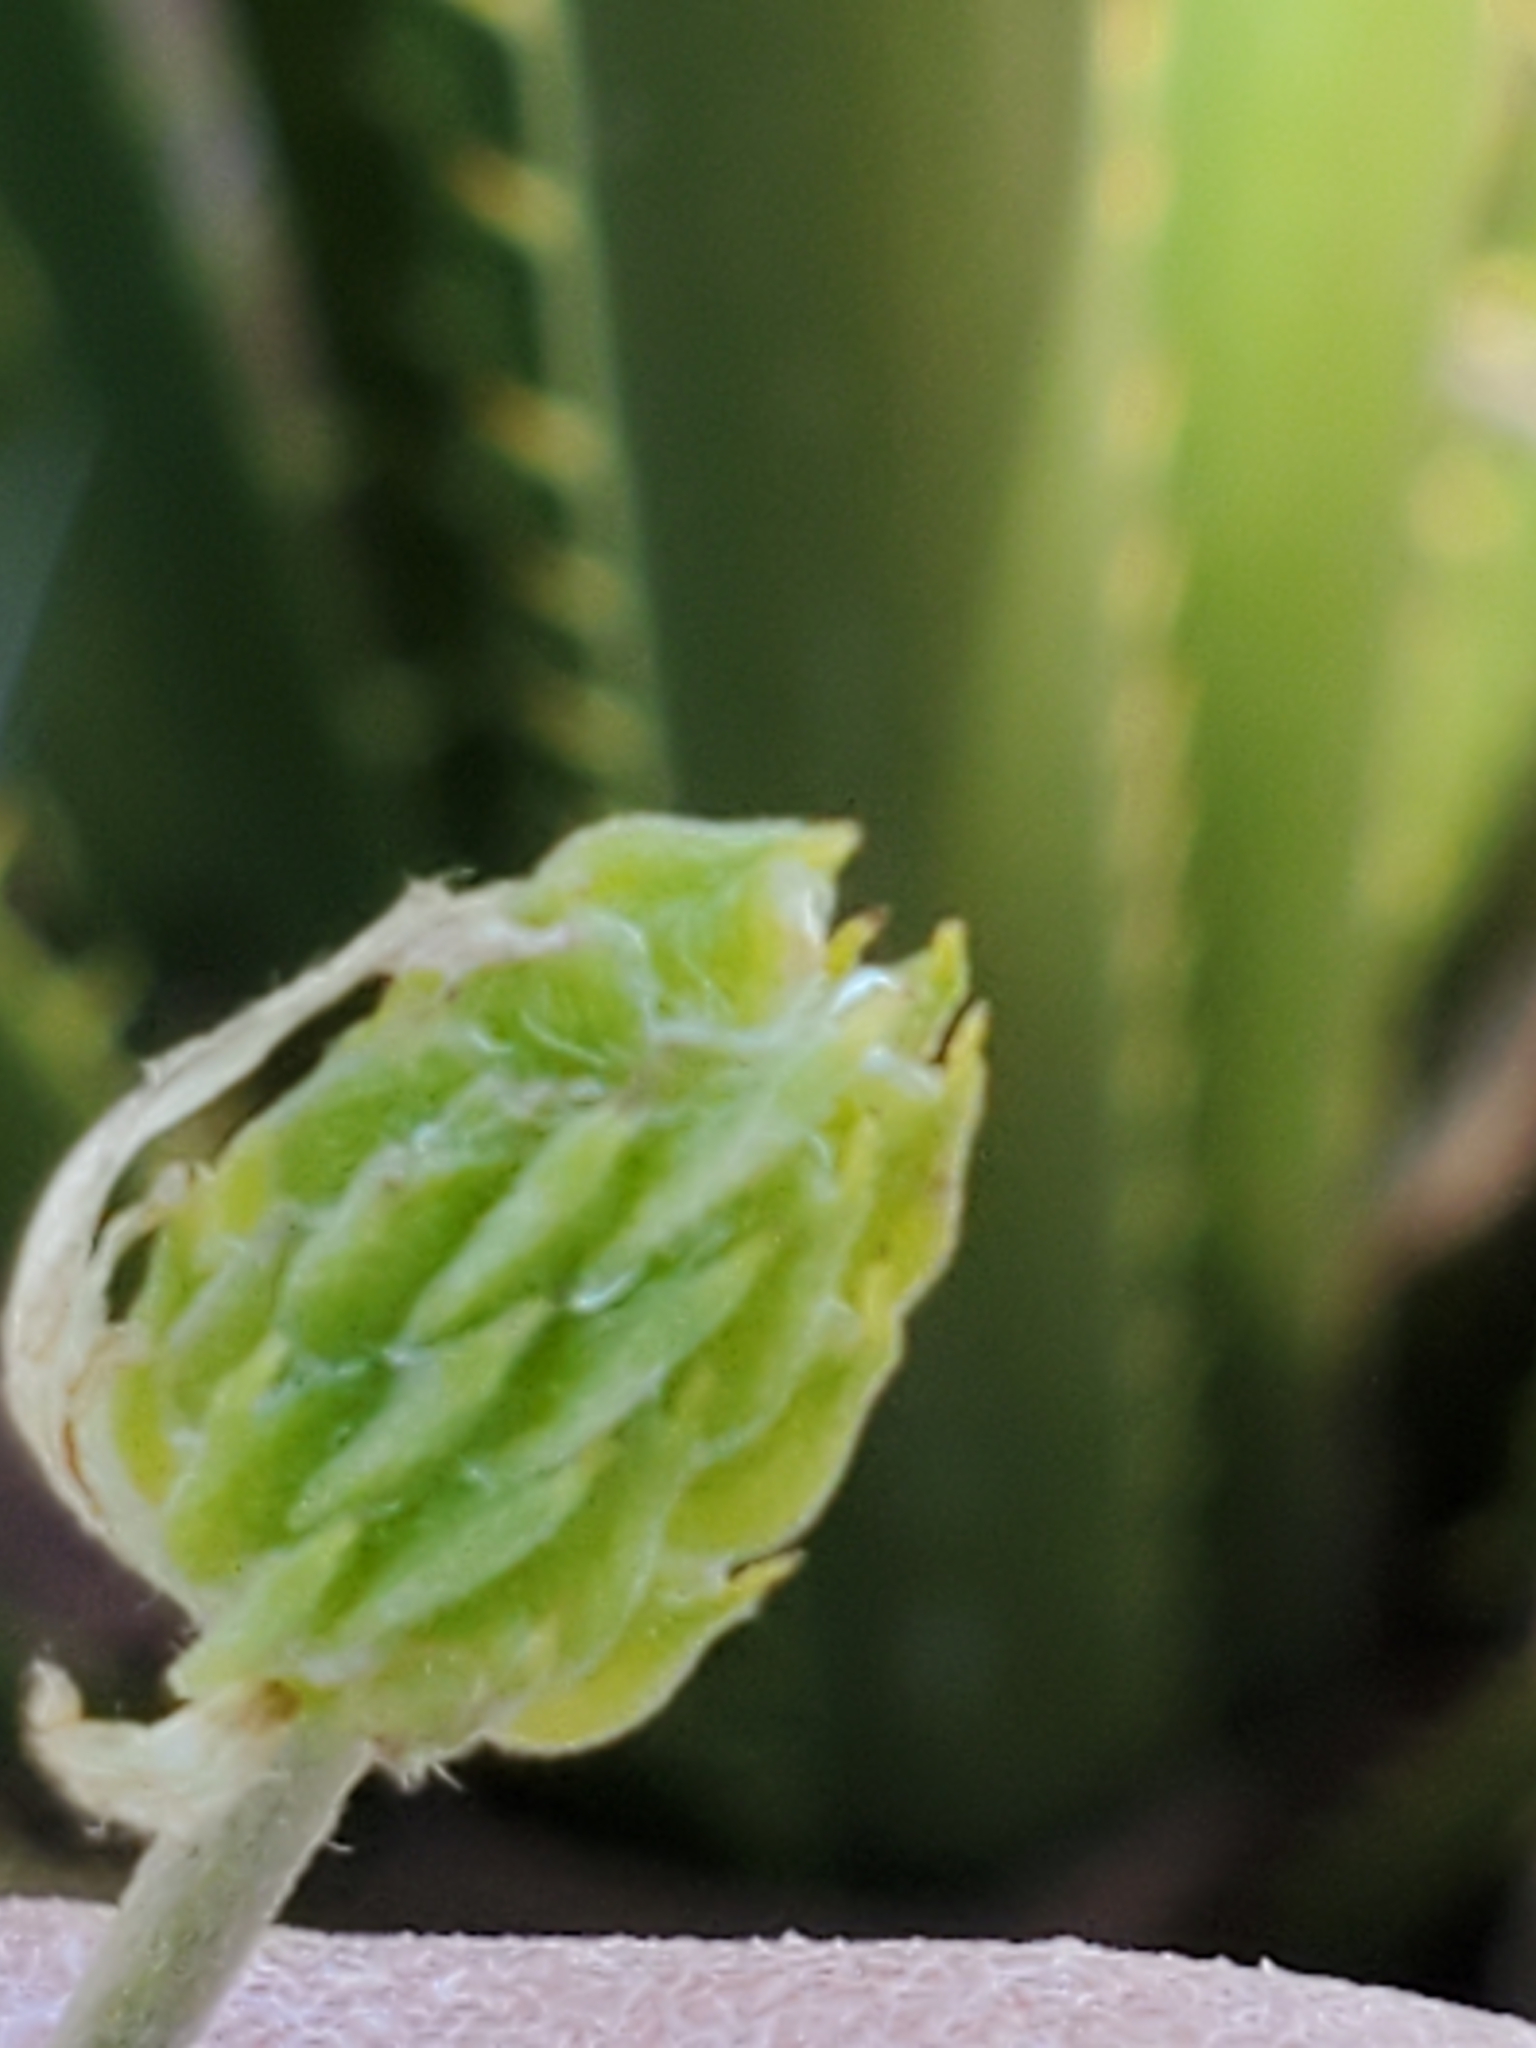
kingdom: Plantae
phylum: Tracheophyta
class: Magnoliopsida
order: Ranunculales
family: Ranunculaceae
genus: Anemone
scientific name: Anemone edwardsiana
